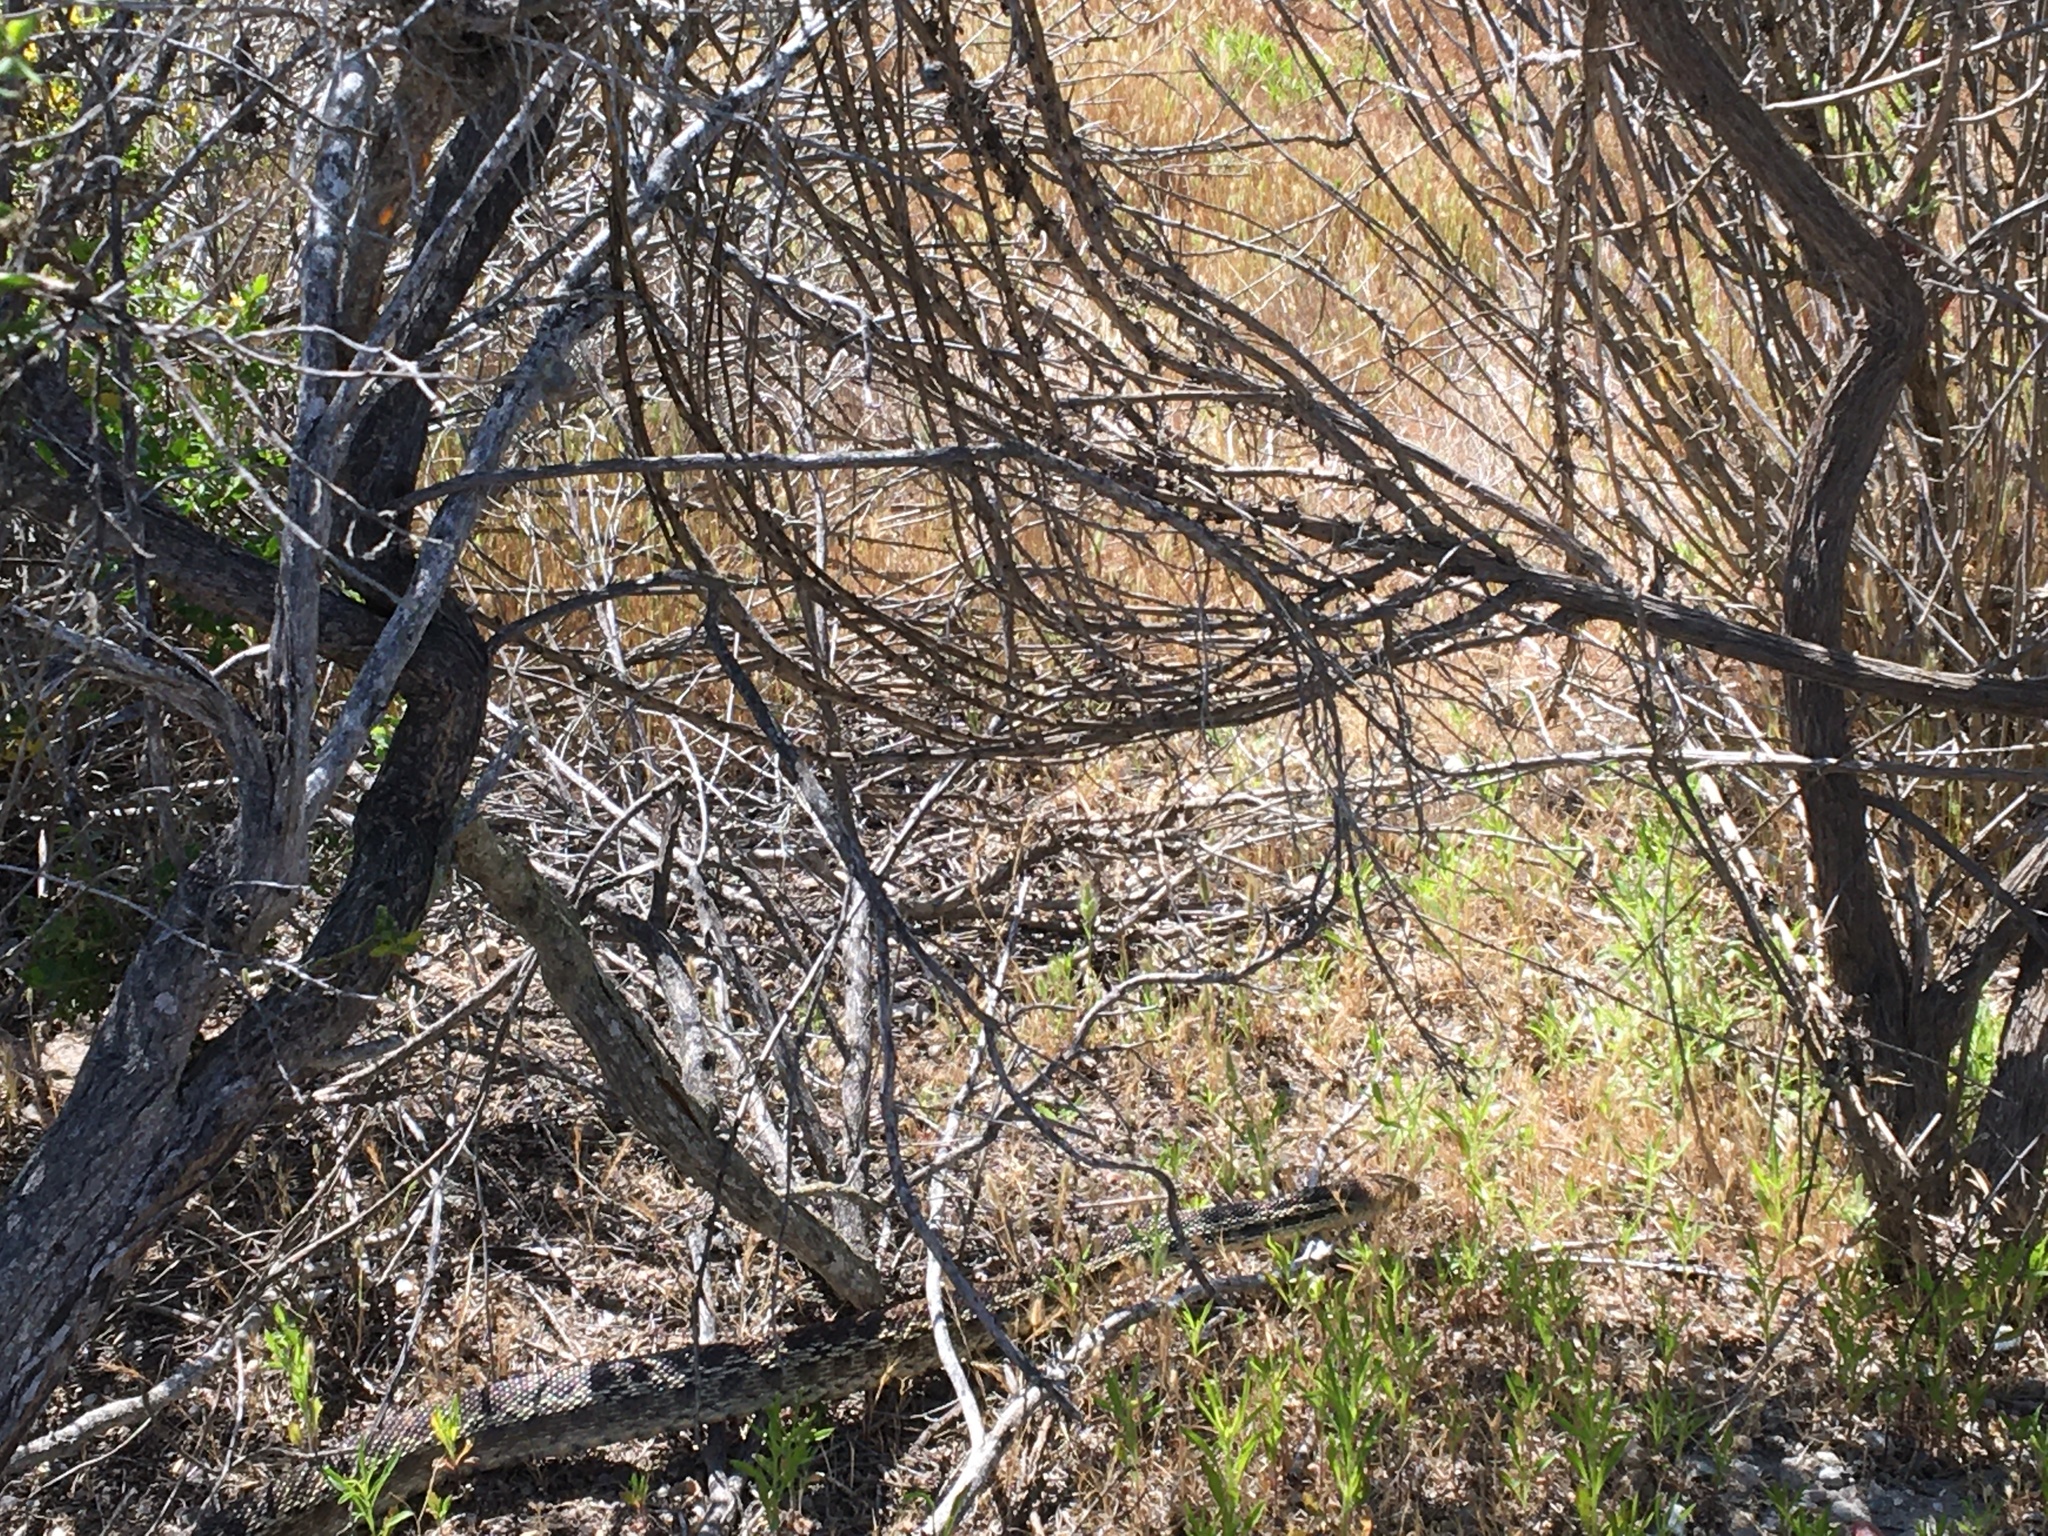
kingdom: Animalia
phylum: Chordata
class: Squamata
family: Colubridae
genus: Pituophis
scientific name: Pituophis catenifer
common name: Gopher snake
